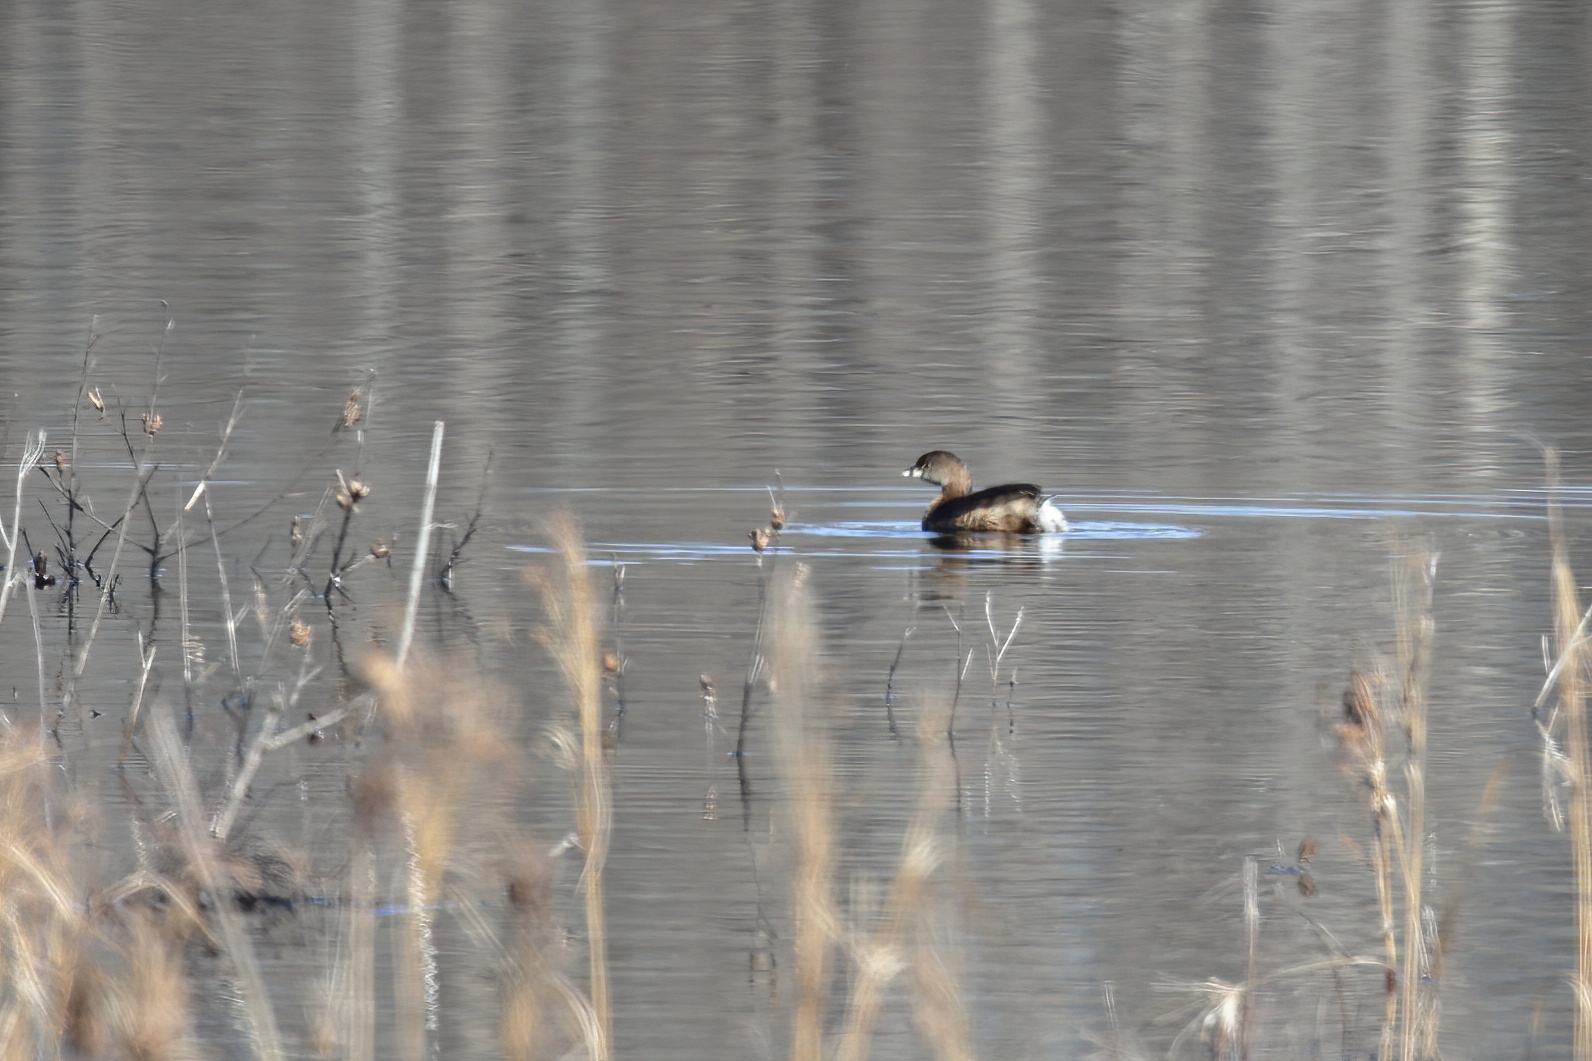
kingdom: Animalia
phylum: Chordata
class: Aves
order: Podicipediformes
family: Podicipedidae
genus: Podilymbus
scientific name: Podilymbus podiceps
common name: Pied-billed grebe
